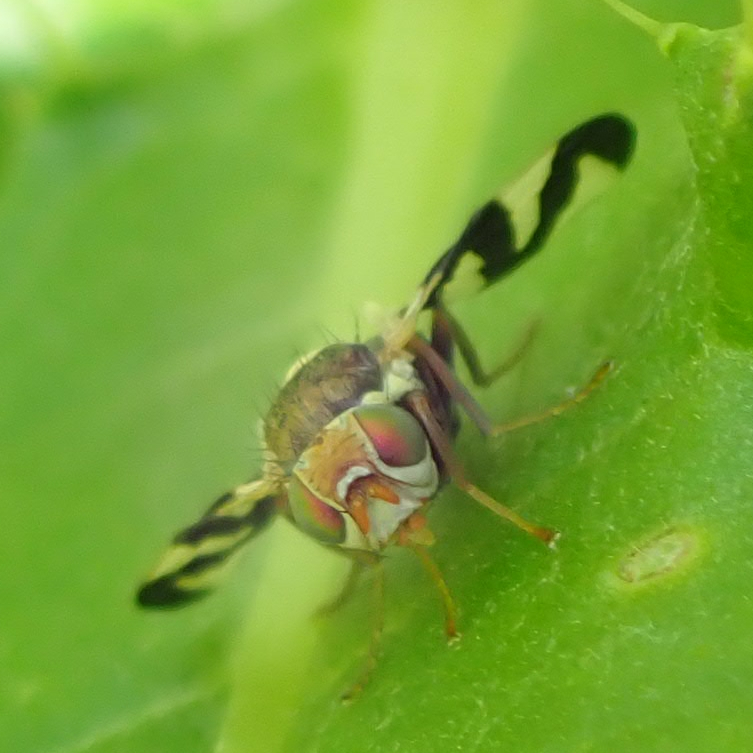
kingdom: Animalia
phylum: Arthropoda
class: Insecta
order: Diptera
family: Tephritidae
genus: Urophora
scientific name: Urophora cardui
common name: Fruit fly
